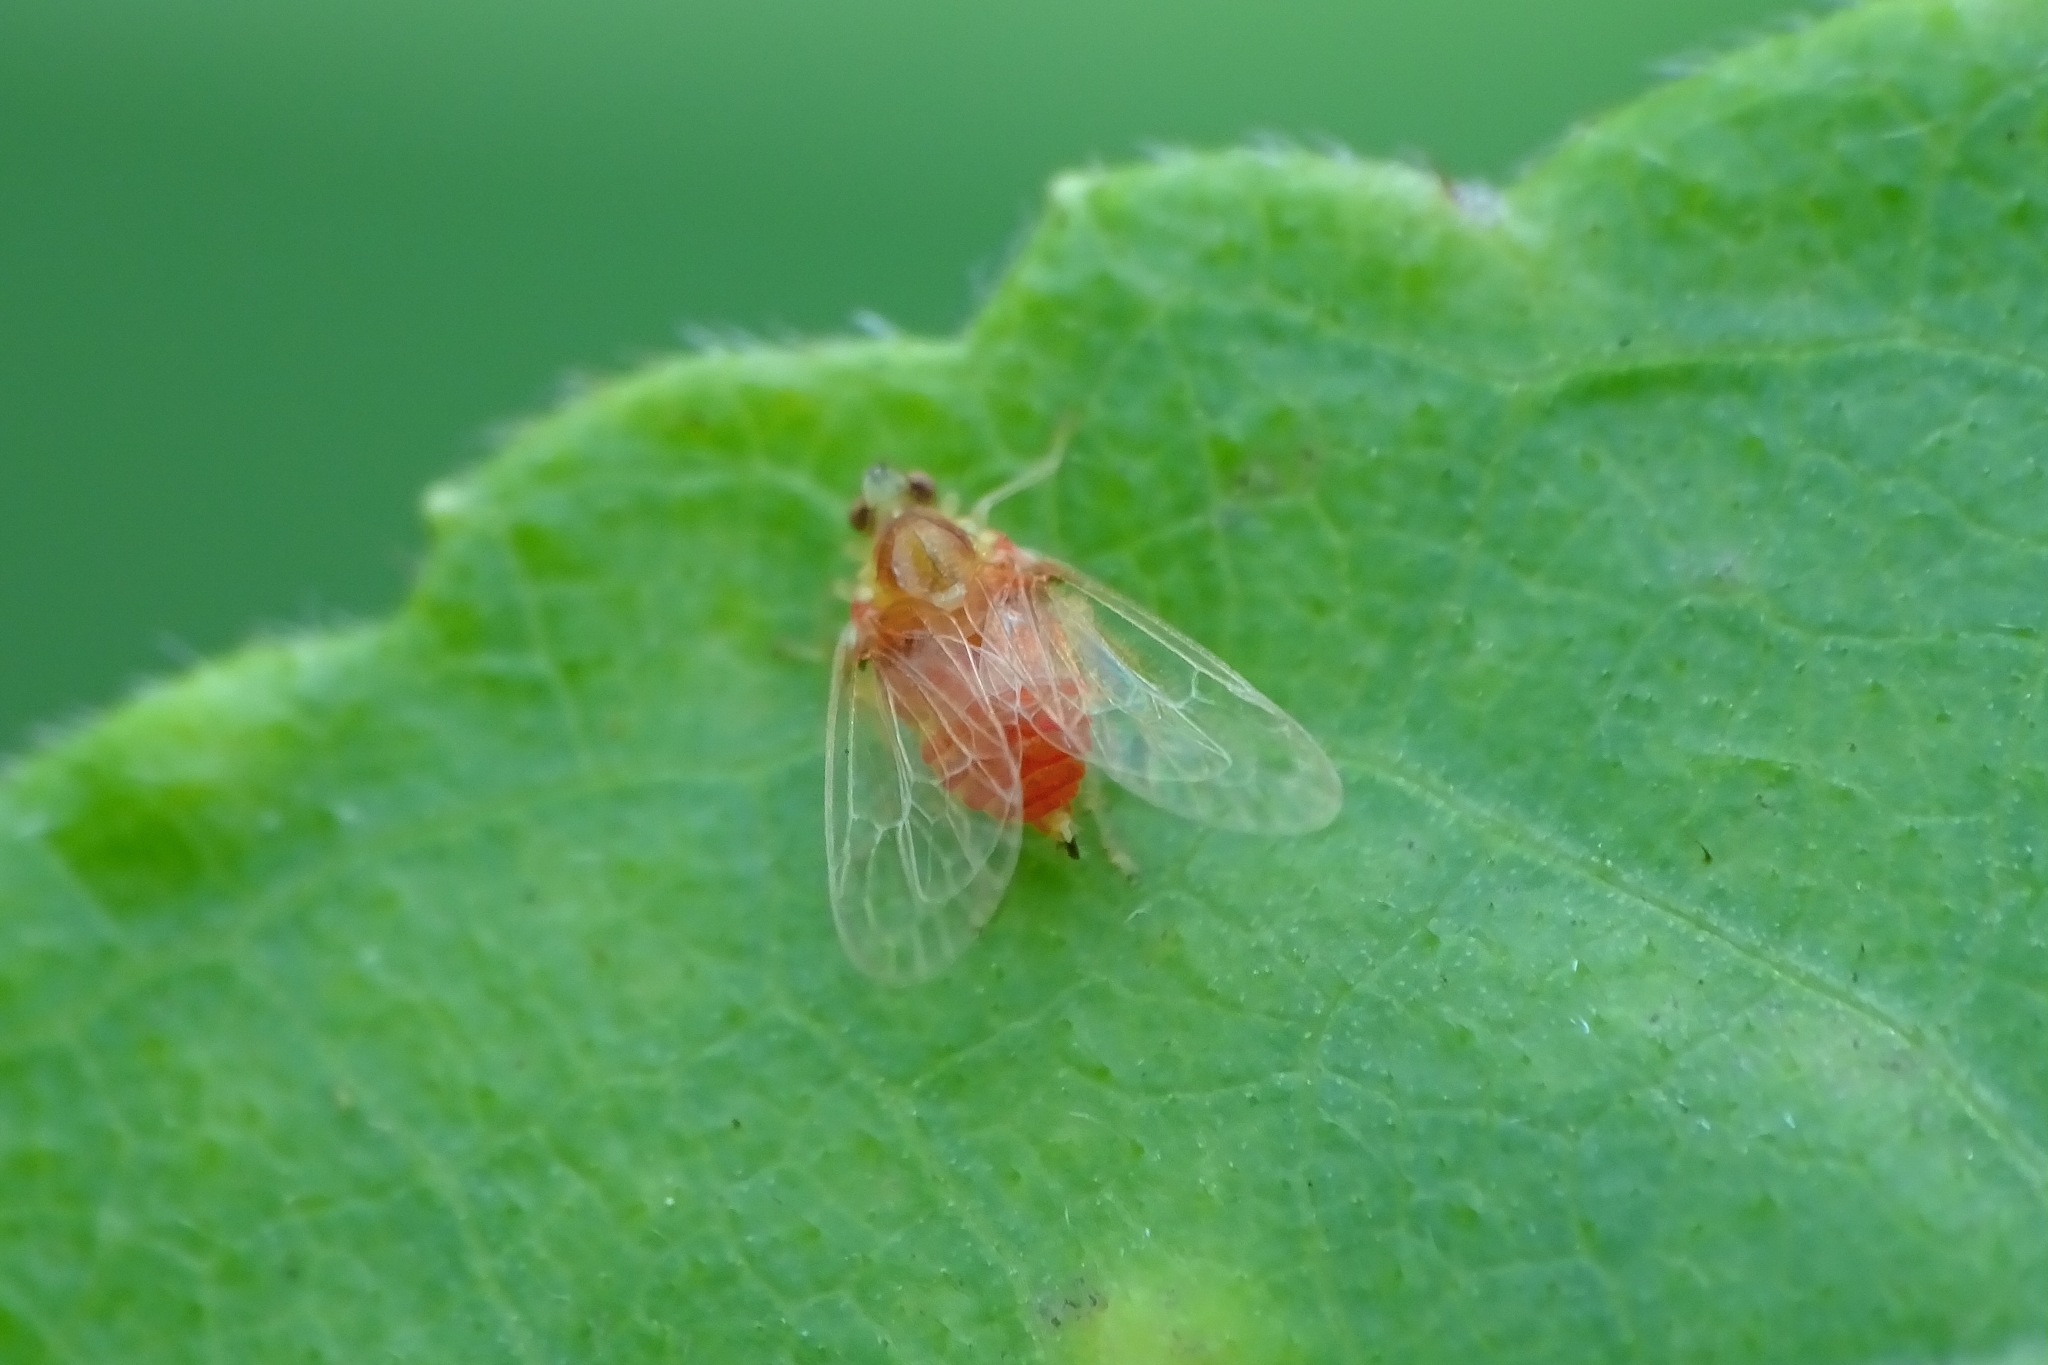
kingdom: Animalia
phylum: Arthropoda
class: Insecta
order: Hemiptera
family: Tropiduchidae
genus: Neommatissus
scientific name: Neommatissus
